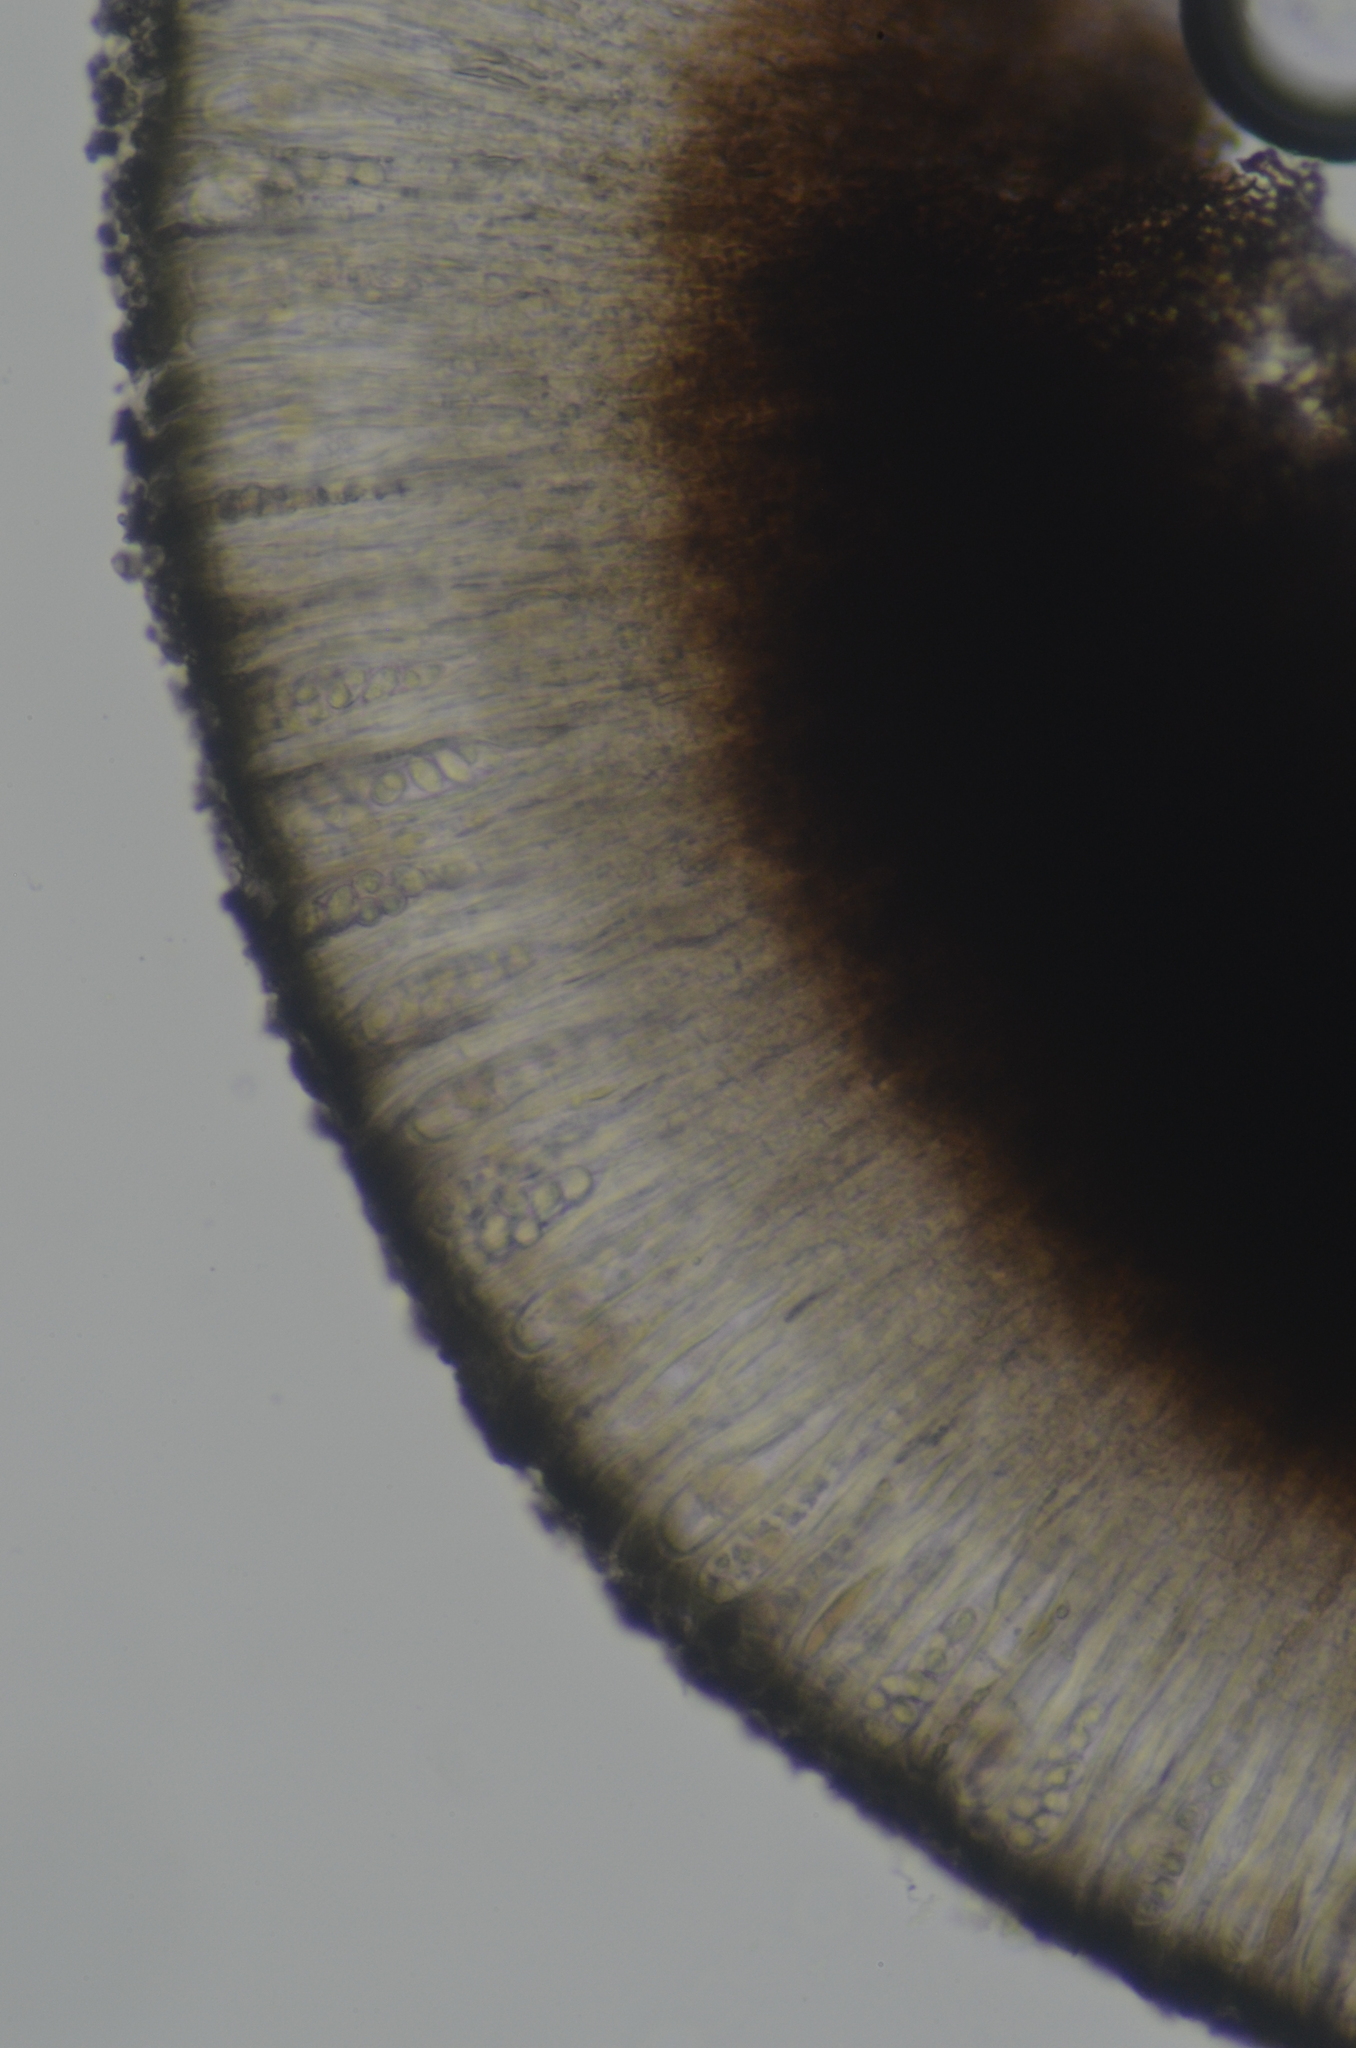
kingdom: Fungi
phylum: Ascomycota
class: Lecanoromycetes
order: Lecideales
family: Lecideaceae
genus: Lecidea
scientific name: Lecidea atrobrunnea
